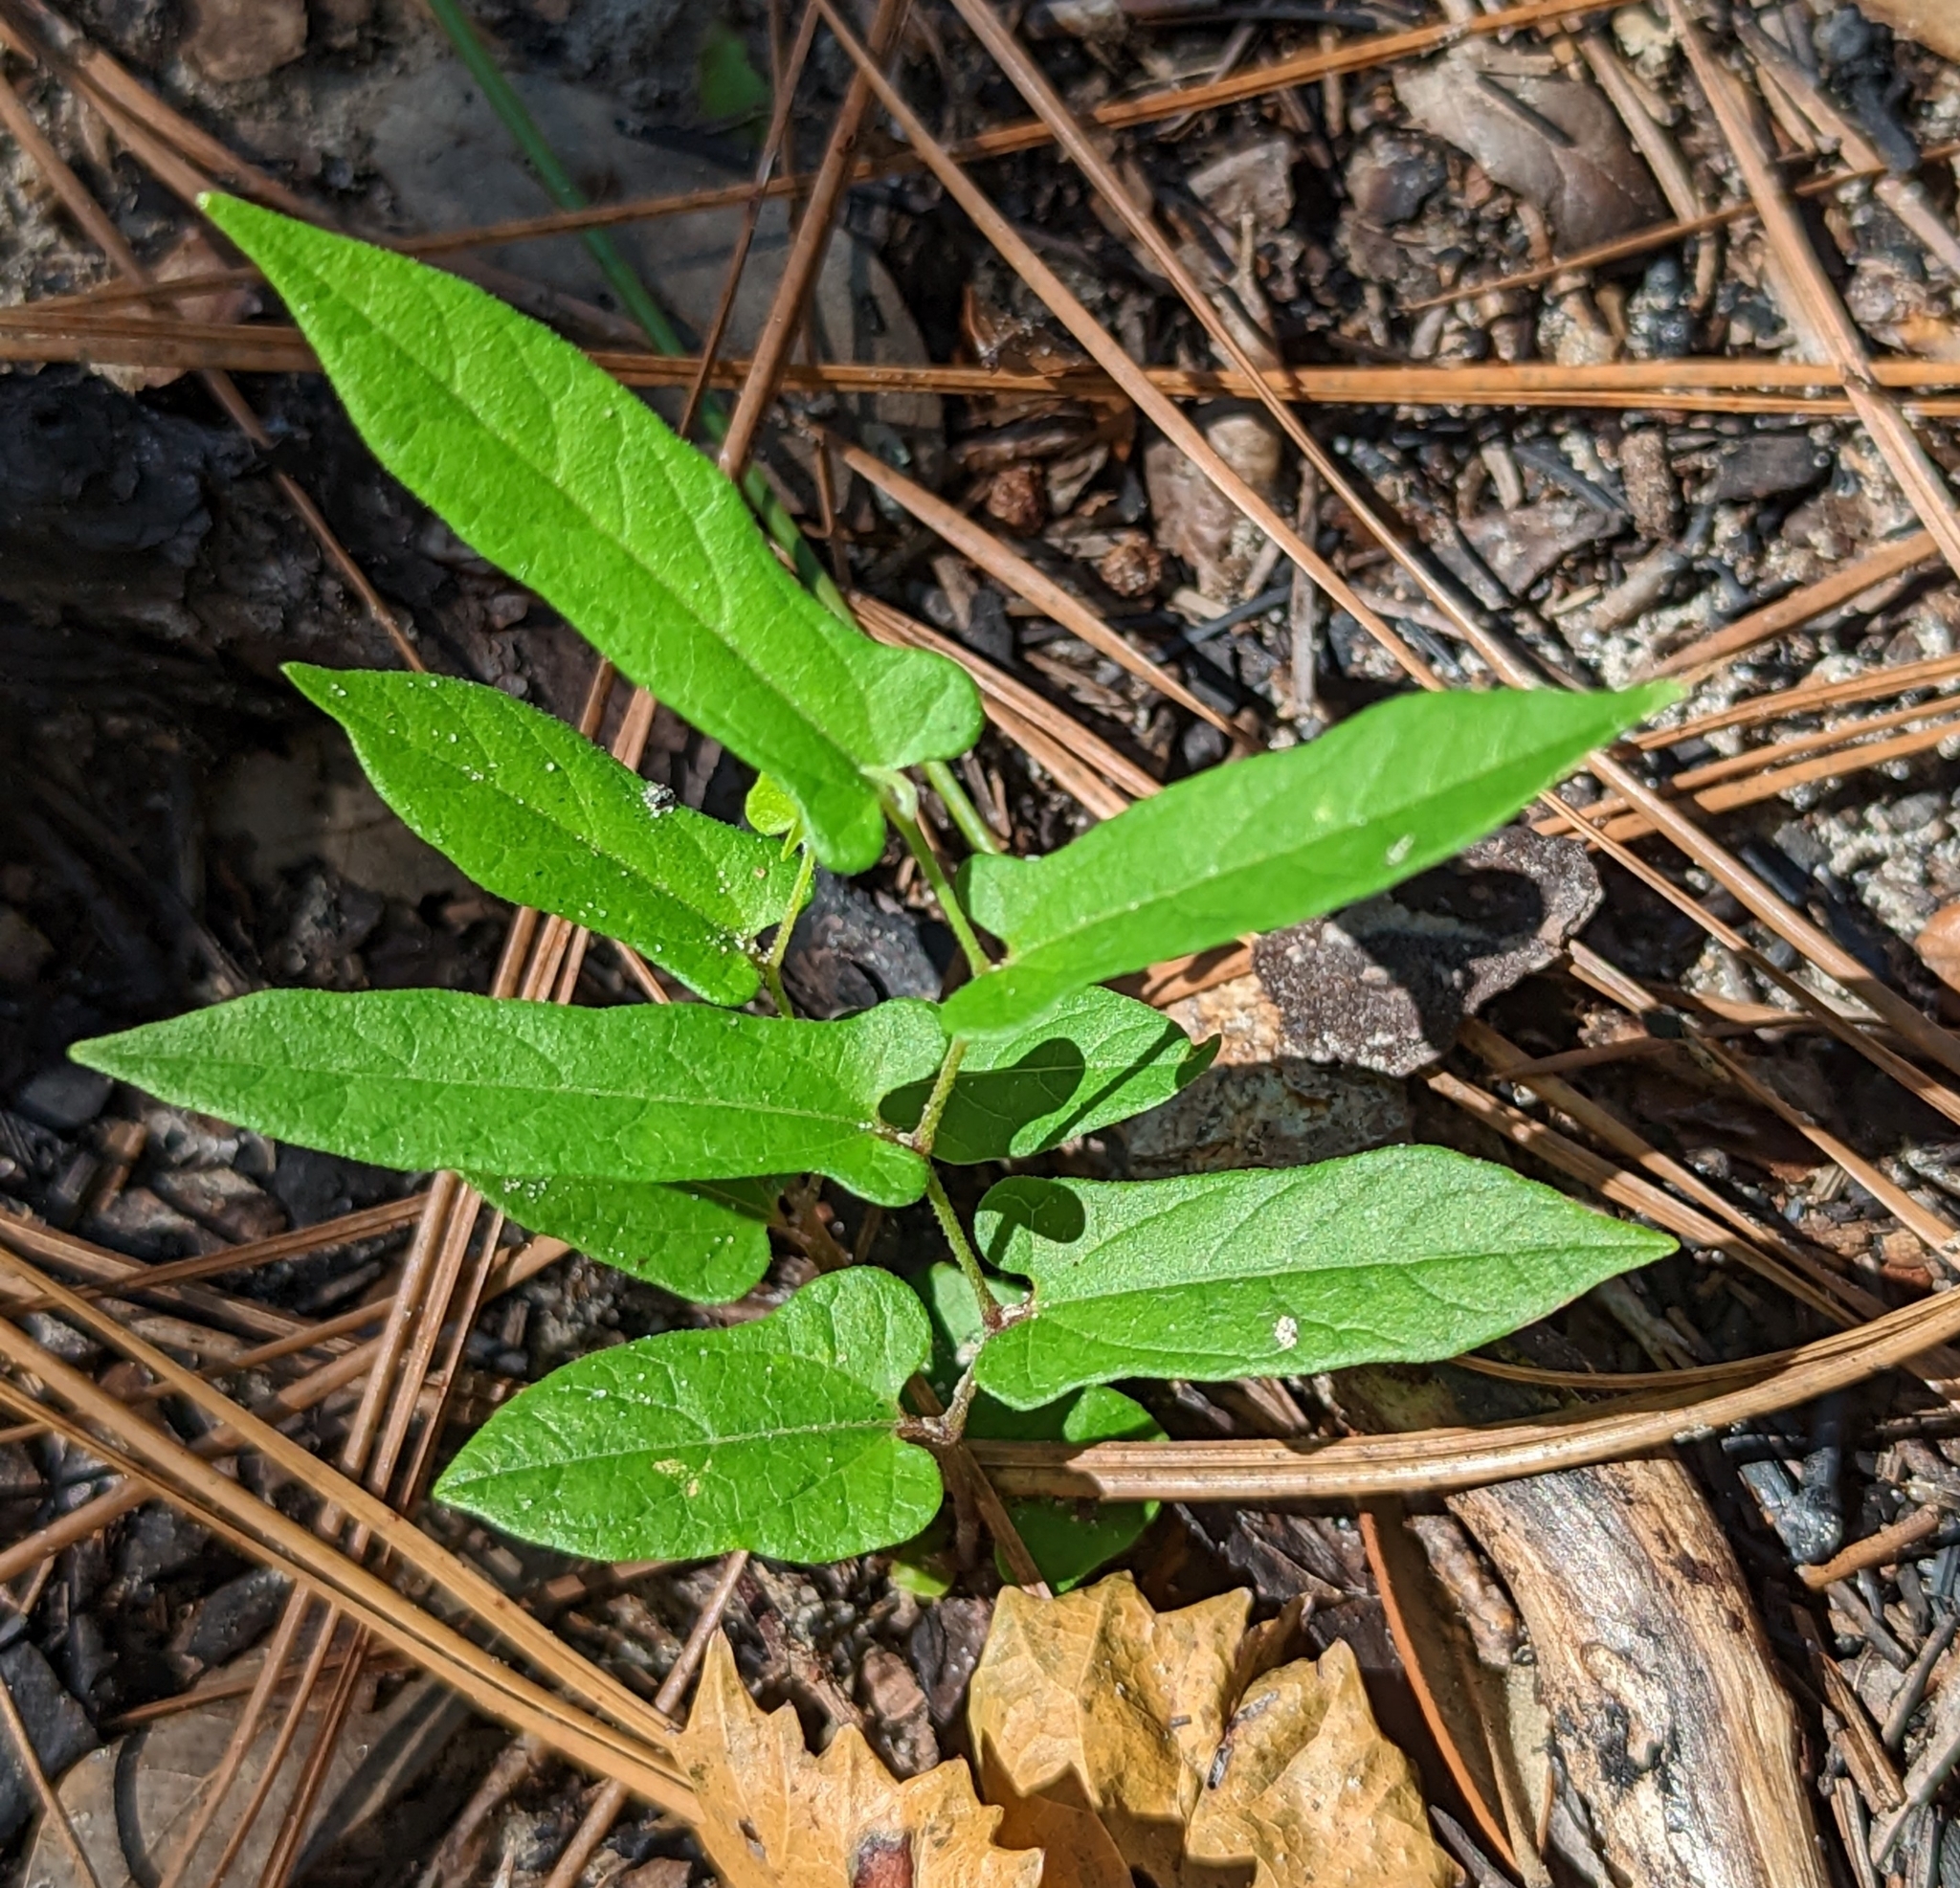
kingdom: Plantae
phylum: Tracheophyta
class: Magnoliopsida
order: Piperales
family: Aristolochiaceae
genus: Endodeca
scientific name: Endodeca serpentaria
